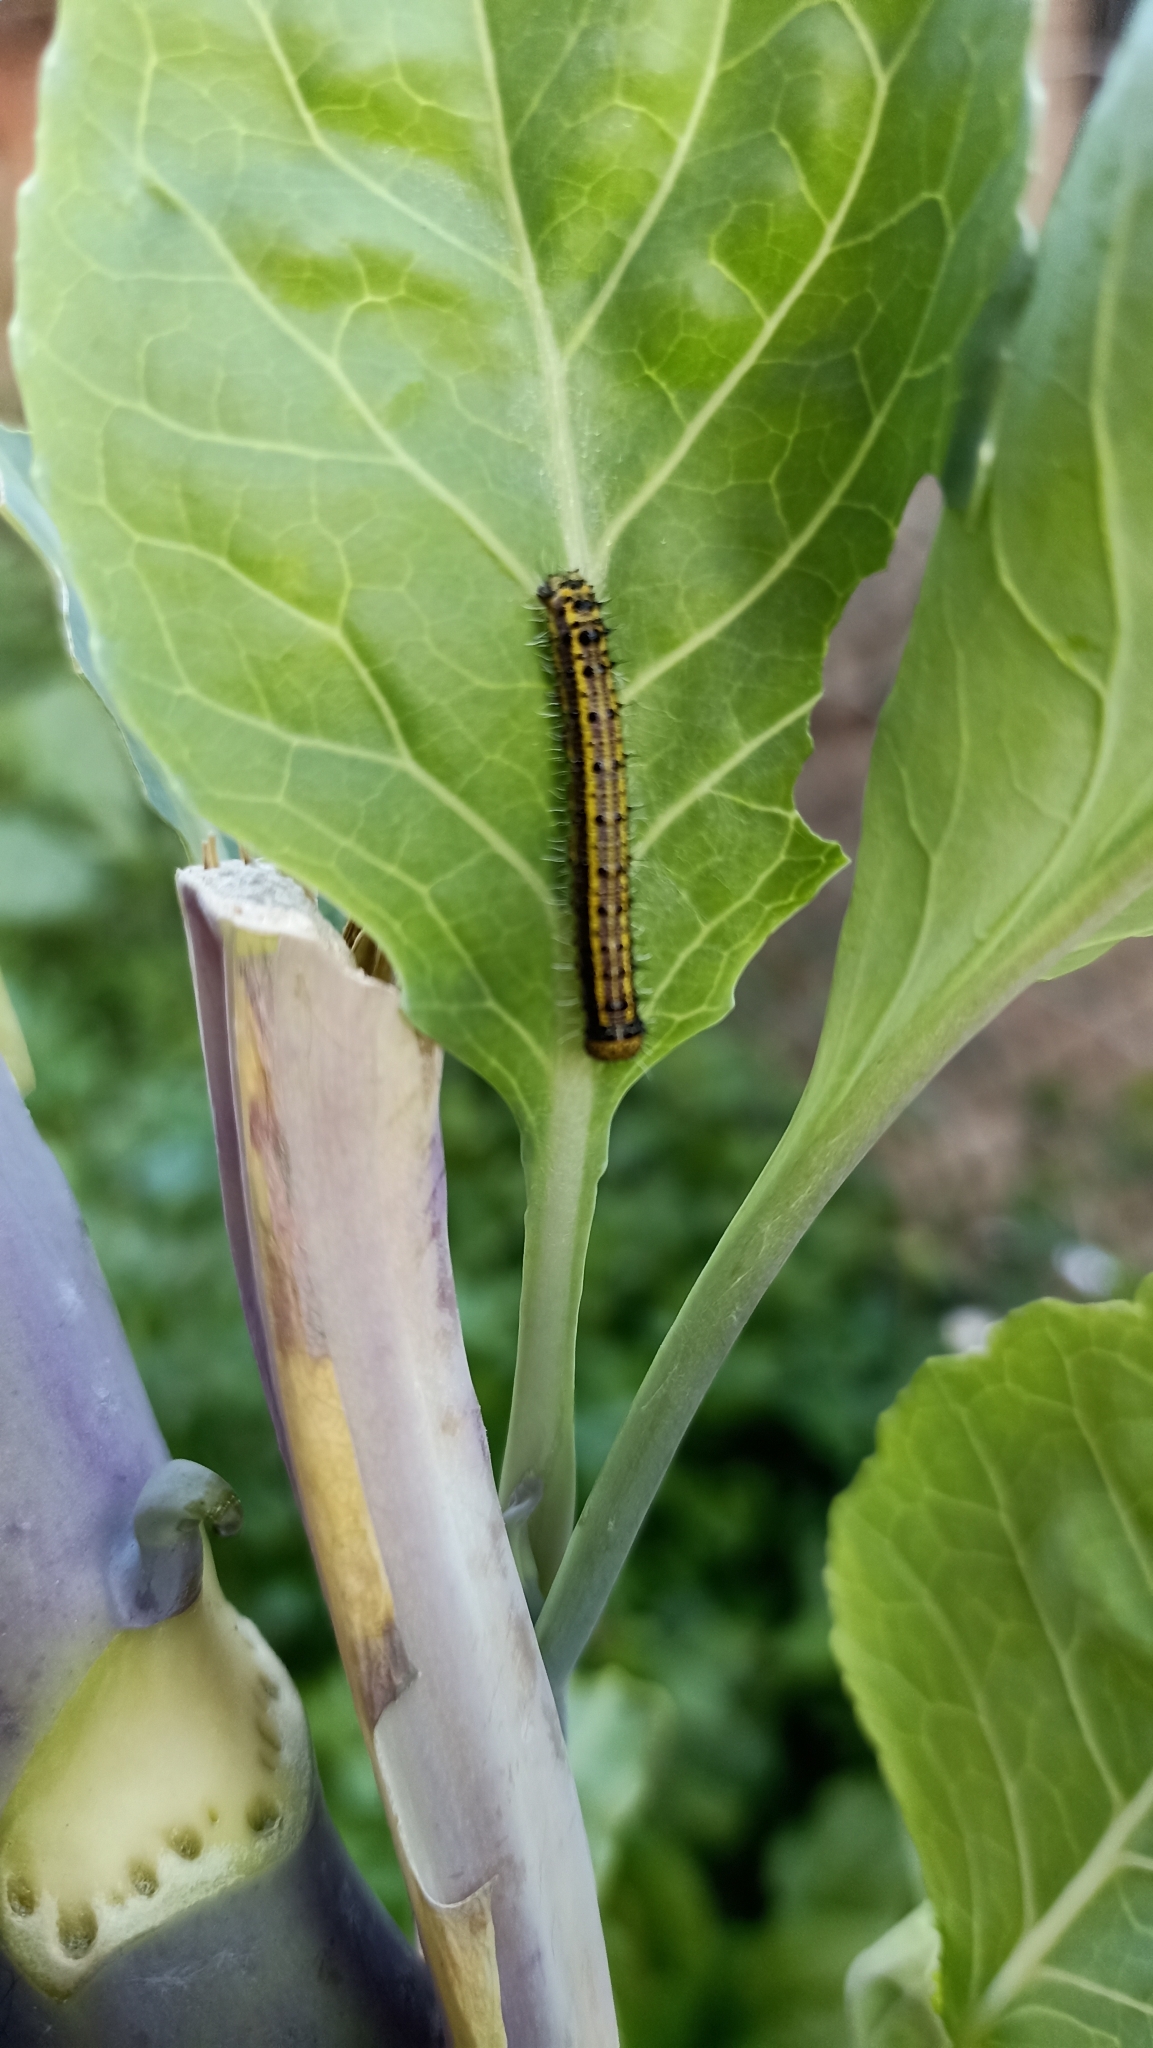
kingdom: Animalia
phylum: Arthropoda
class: Insecta
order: Lepidoptera
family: Pieridae
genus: Ascia
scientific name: Ascia monuste
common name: Great southern white
